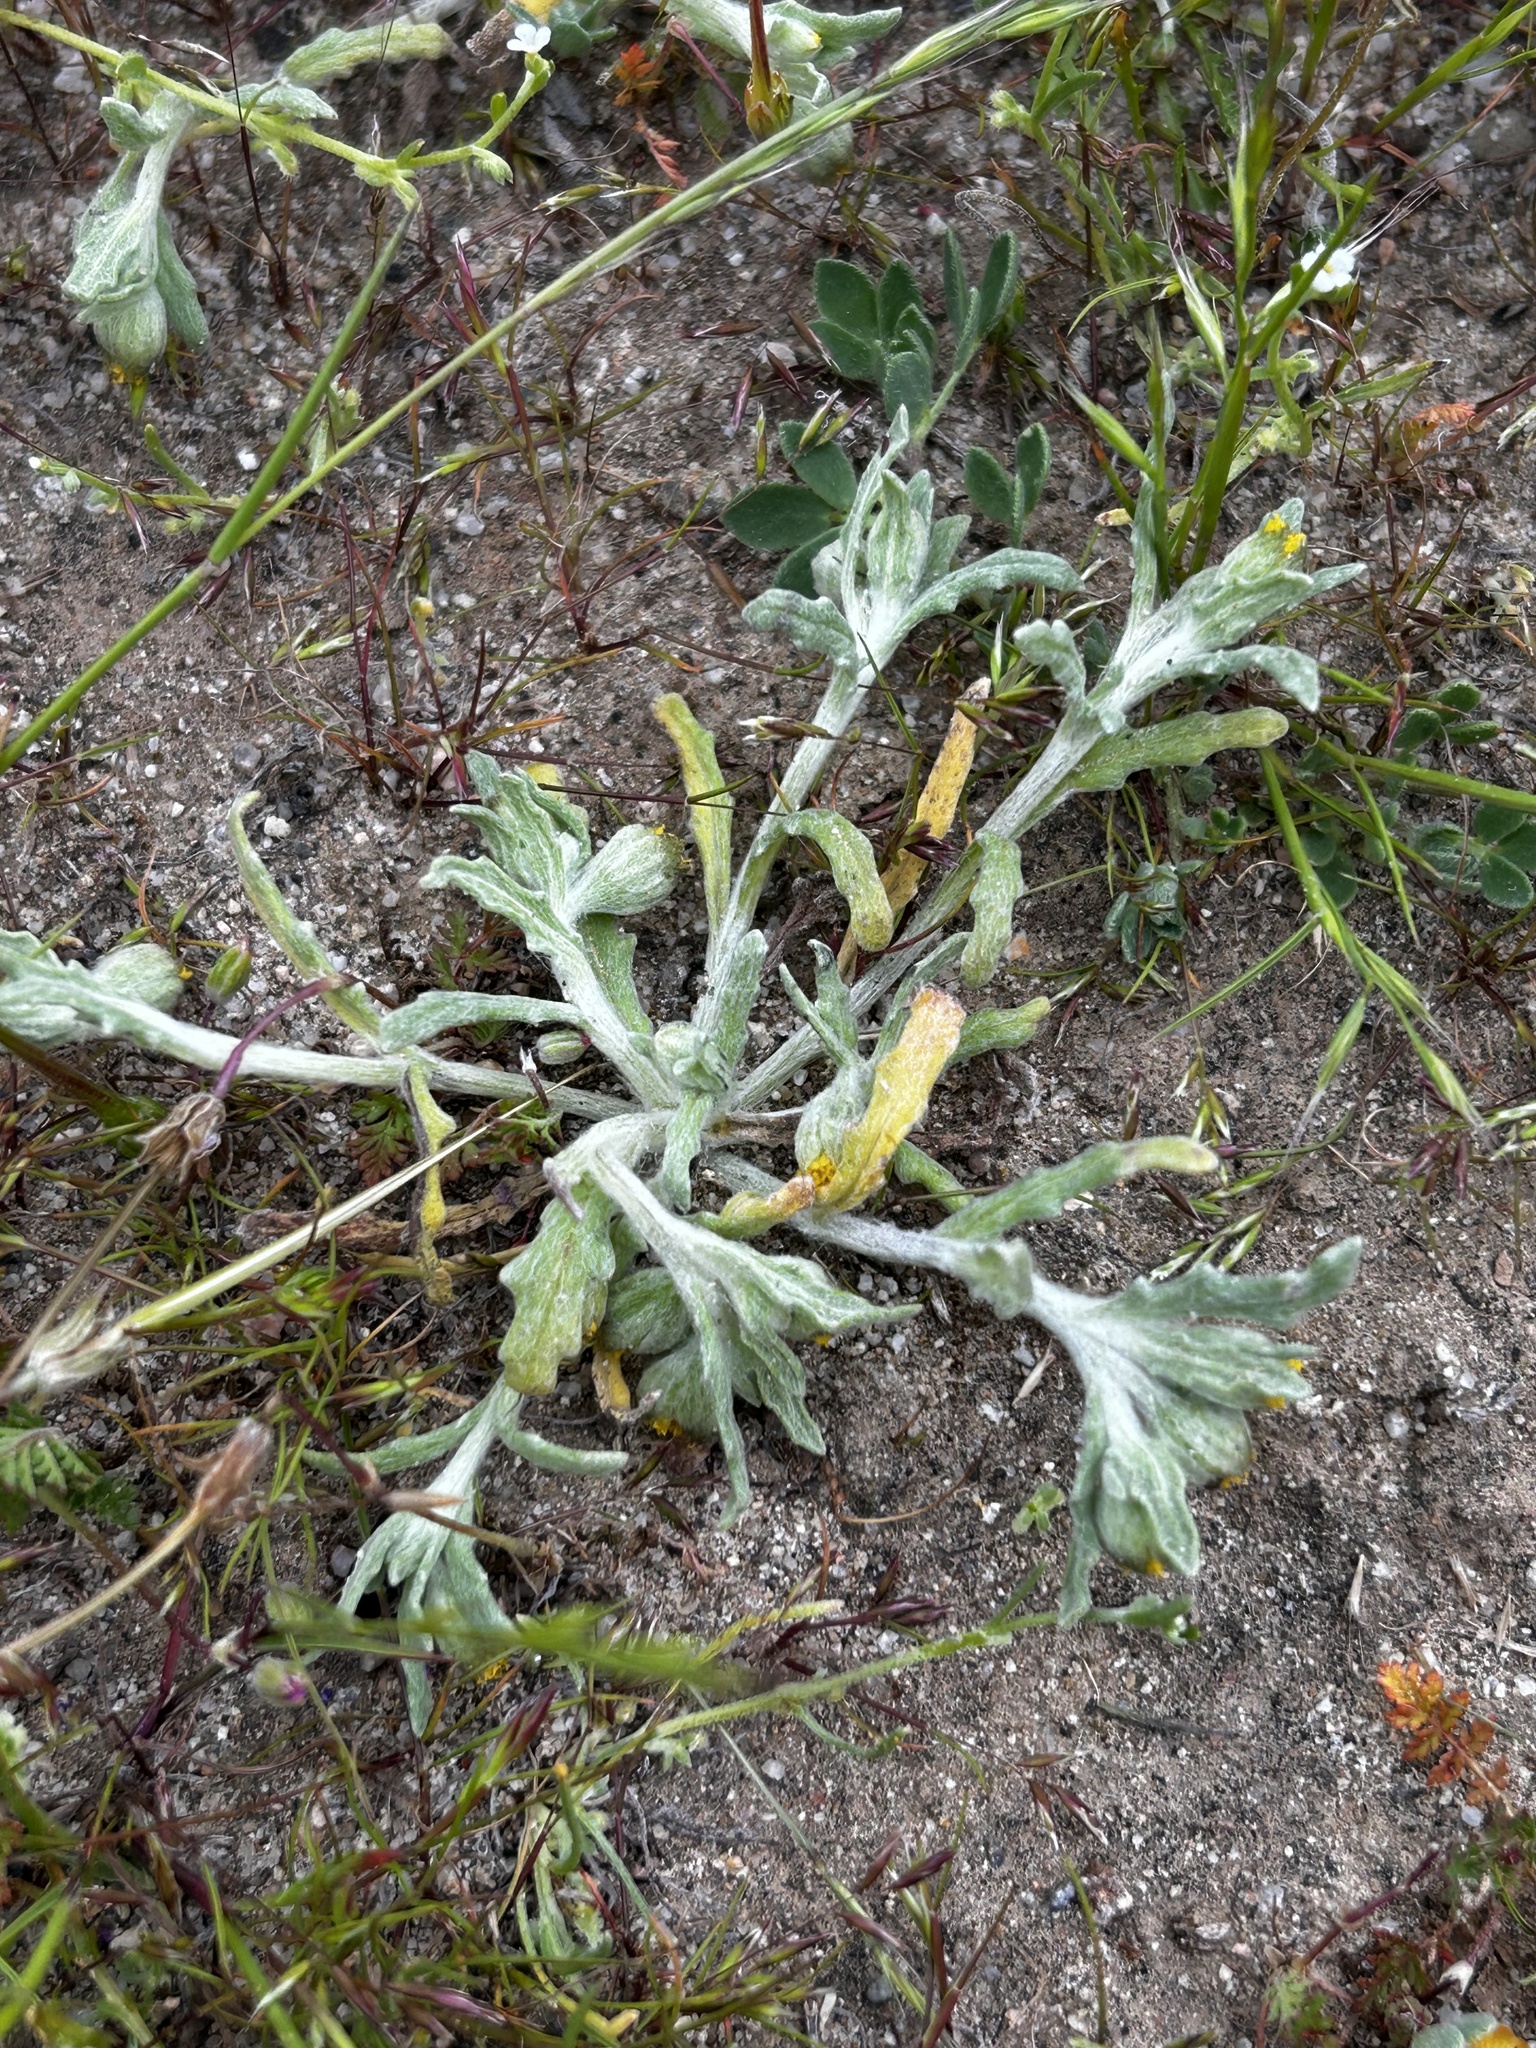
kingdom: Plantae
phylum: Tracheophyta
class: Magnoliopsida
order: Asterales
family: Asteraceae
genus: Monolopia
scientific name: Monolopia congdonii
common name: San joaquin woolly-threads
